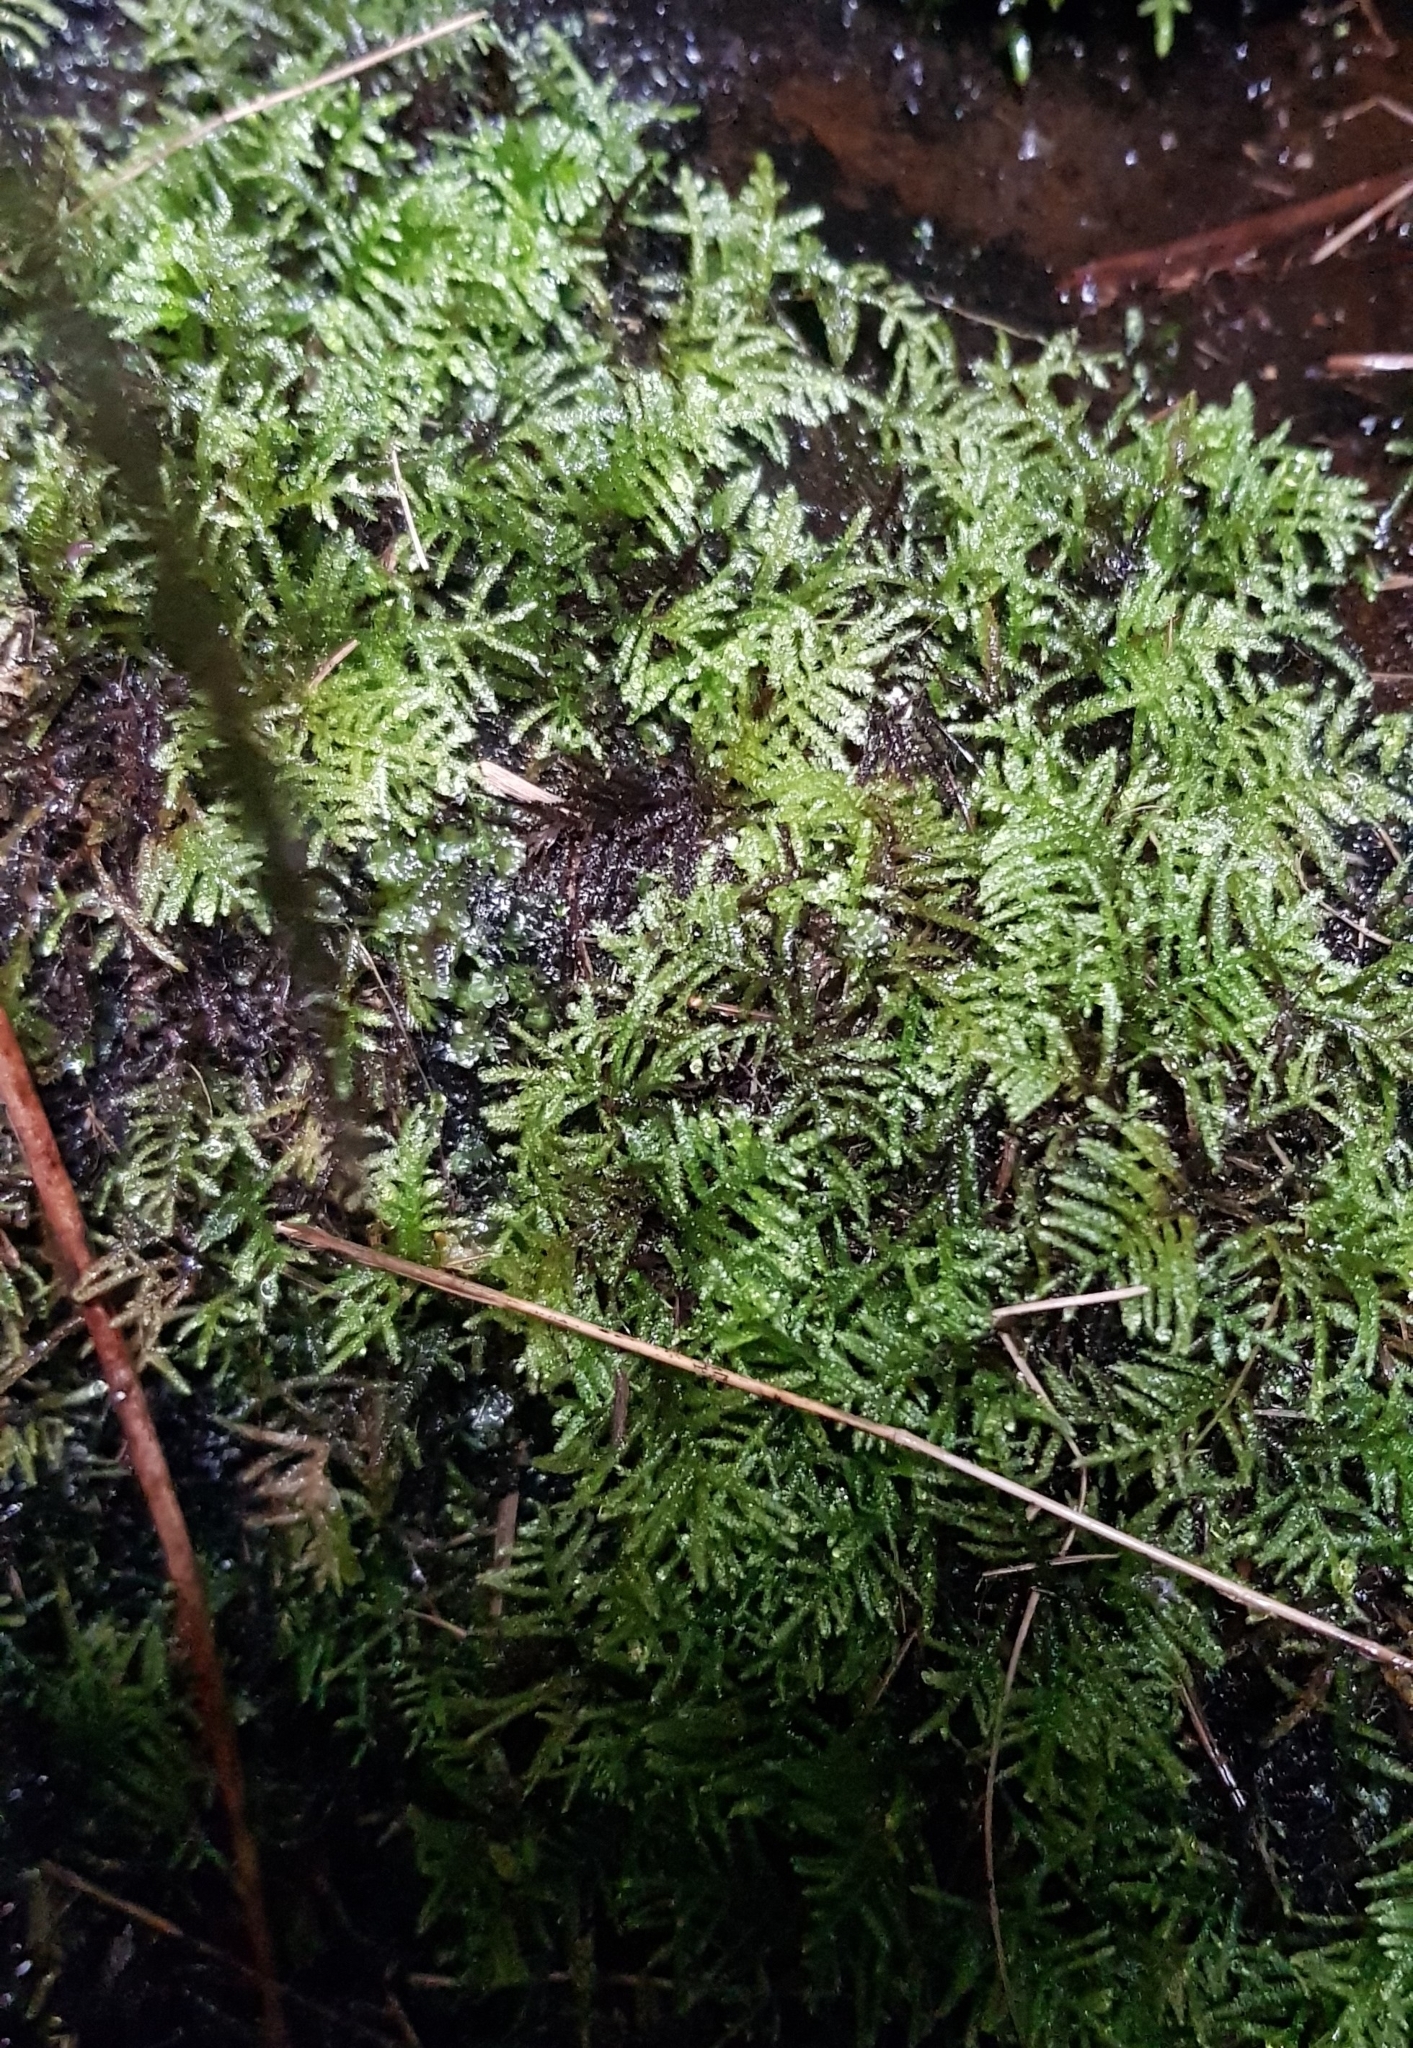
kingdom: Plantae
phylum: Bryophyta
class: Bryopsida
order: Hypnales
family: Myuriaceae
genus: Hyocomium
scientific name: Hyocomium armoricum
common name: Flagellate feather-moss
